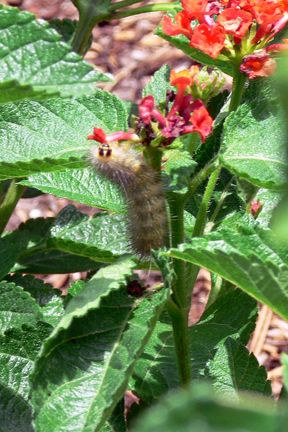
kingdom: Animalia
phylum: Arthropoda
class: Insecta
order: Lepidoptera
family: Erebidae
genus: Estigmene
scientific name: Estigmene acrea
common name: Salt marsh moth
